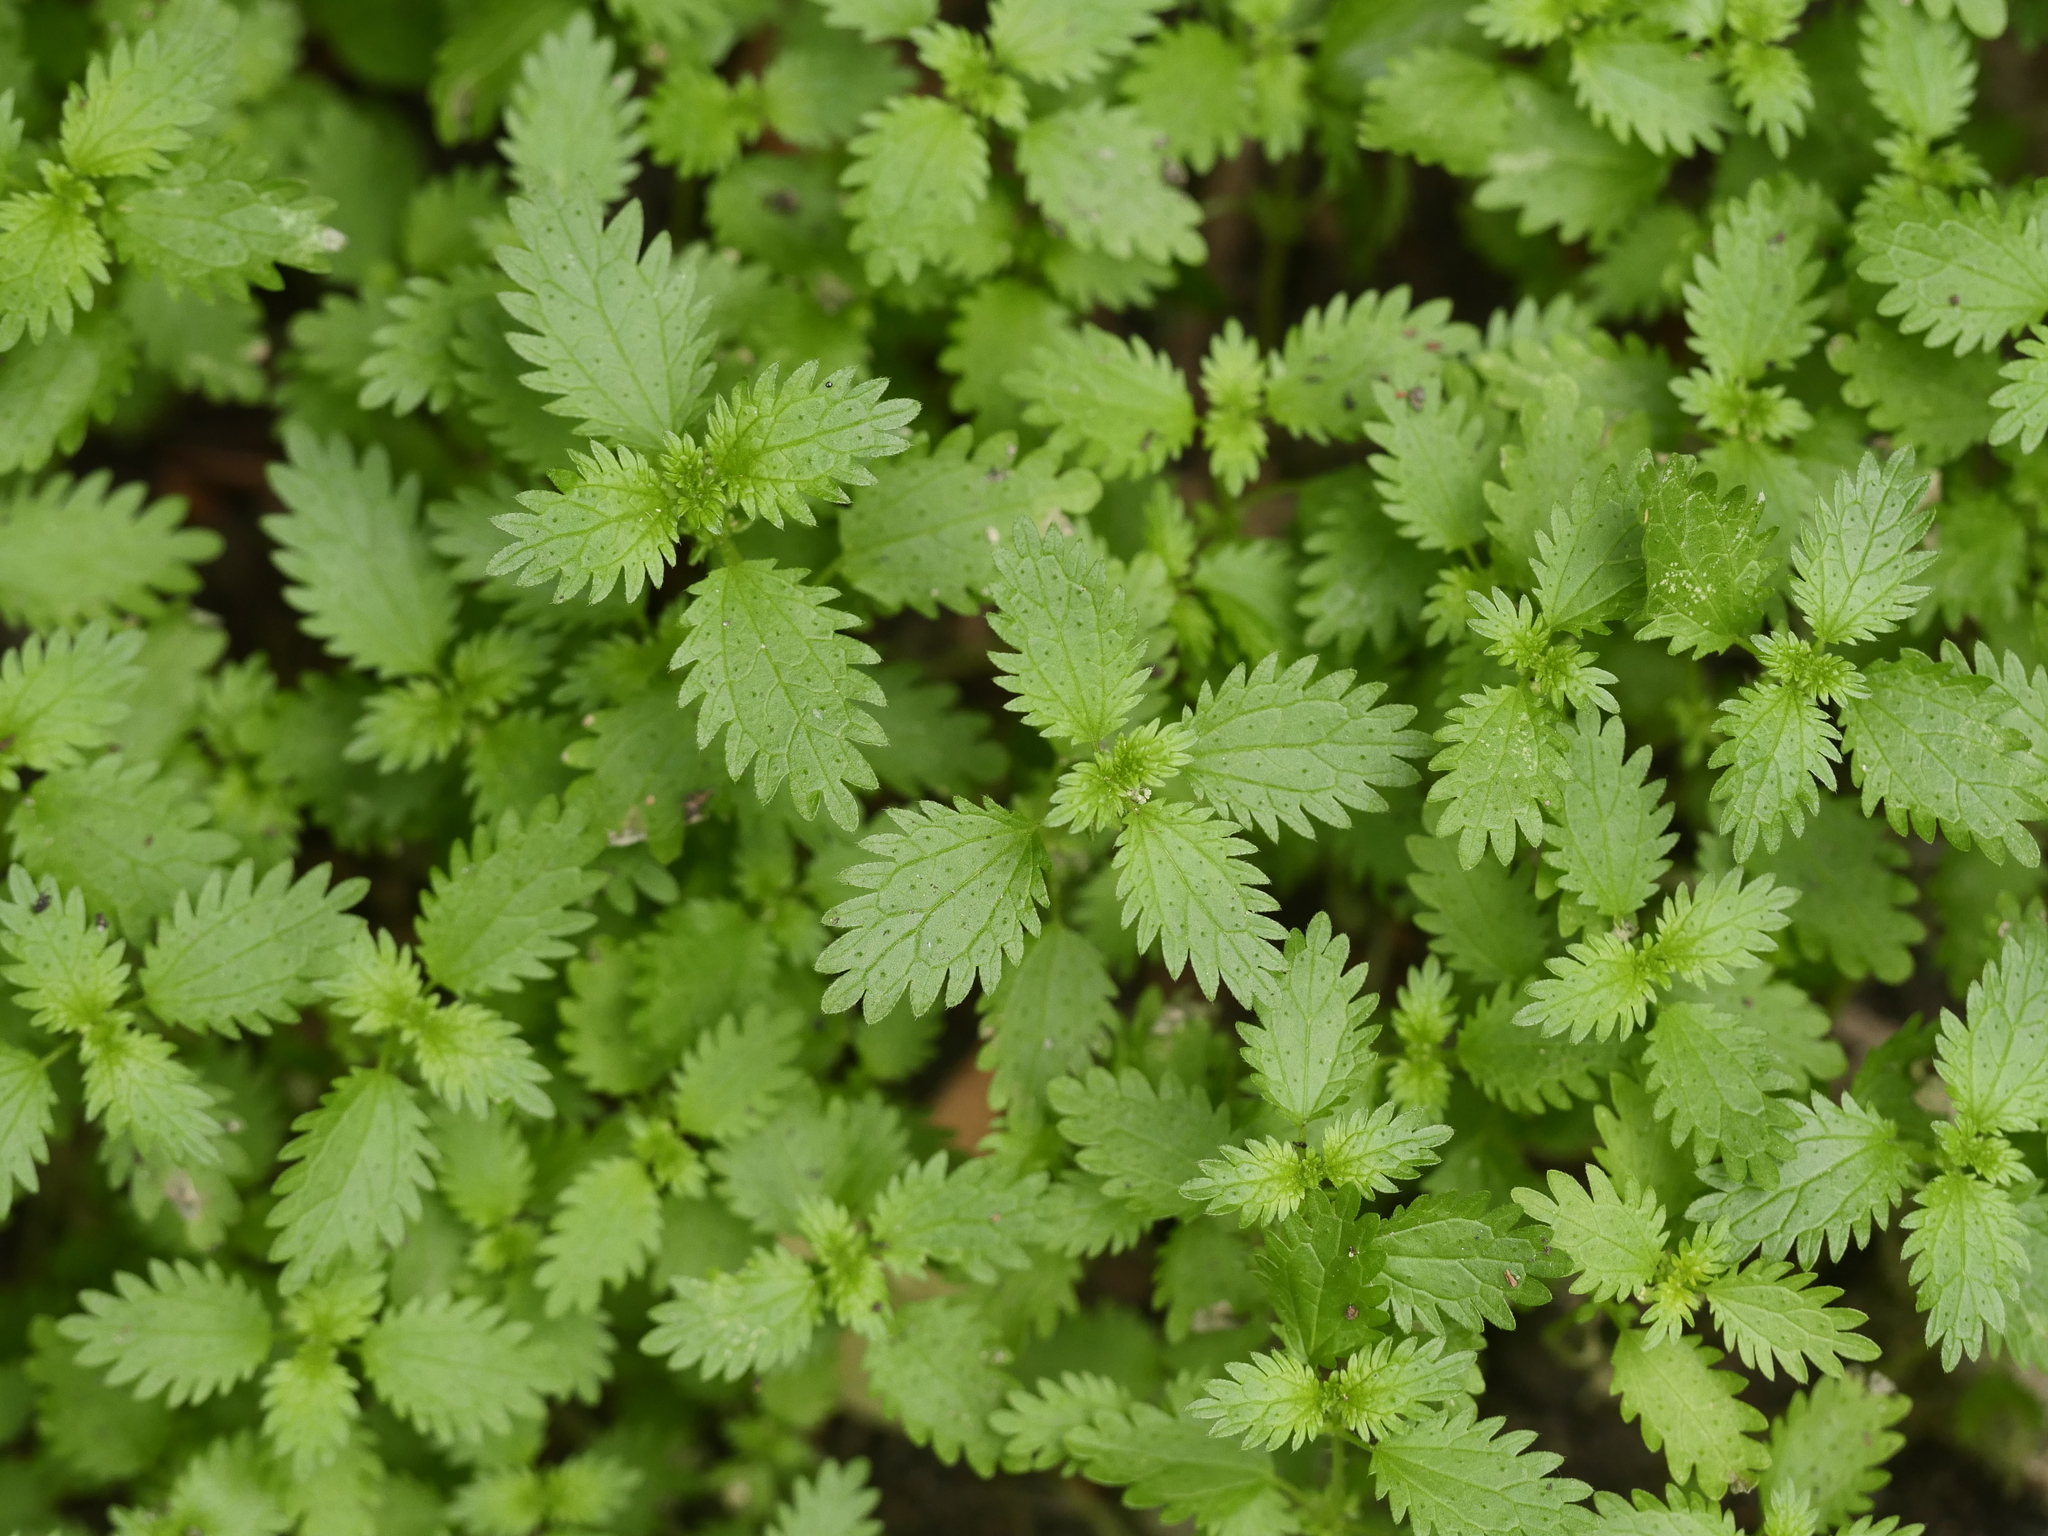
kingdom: Plantae
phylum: Tracheophyta
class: Magnoliopsida
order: Rosales
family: Urticaceae
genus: Urtica
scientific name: Urtica urens
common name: Dwarf nettle
